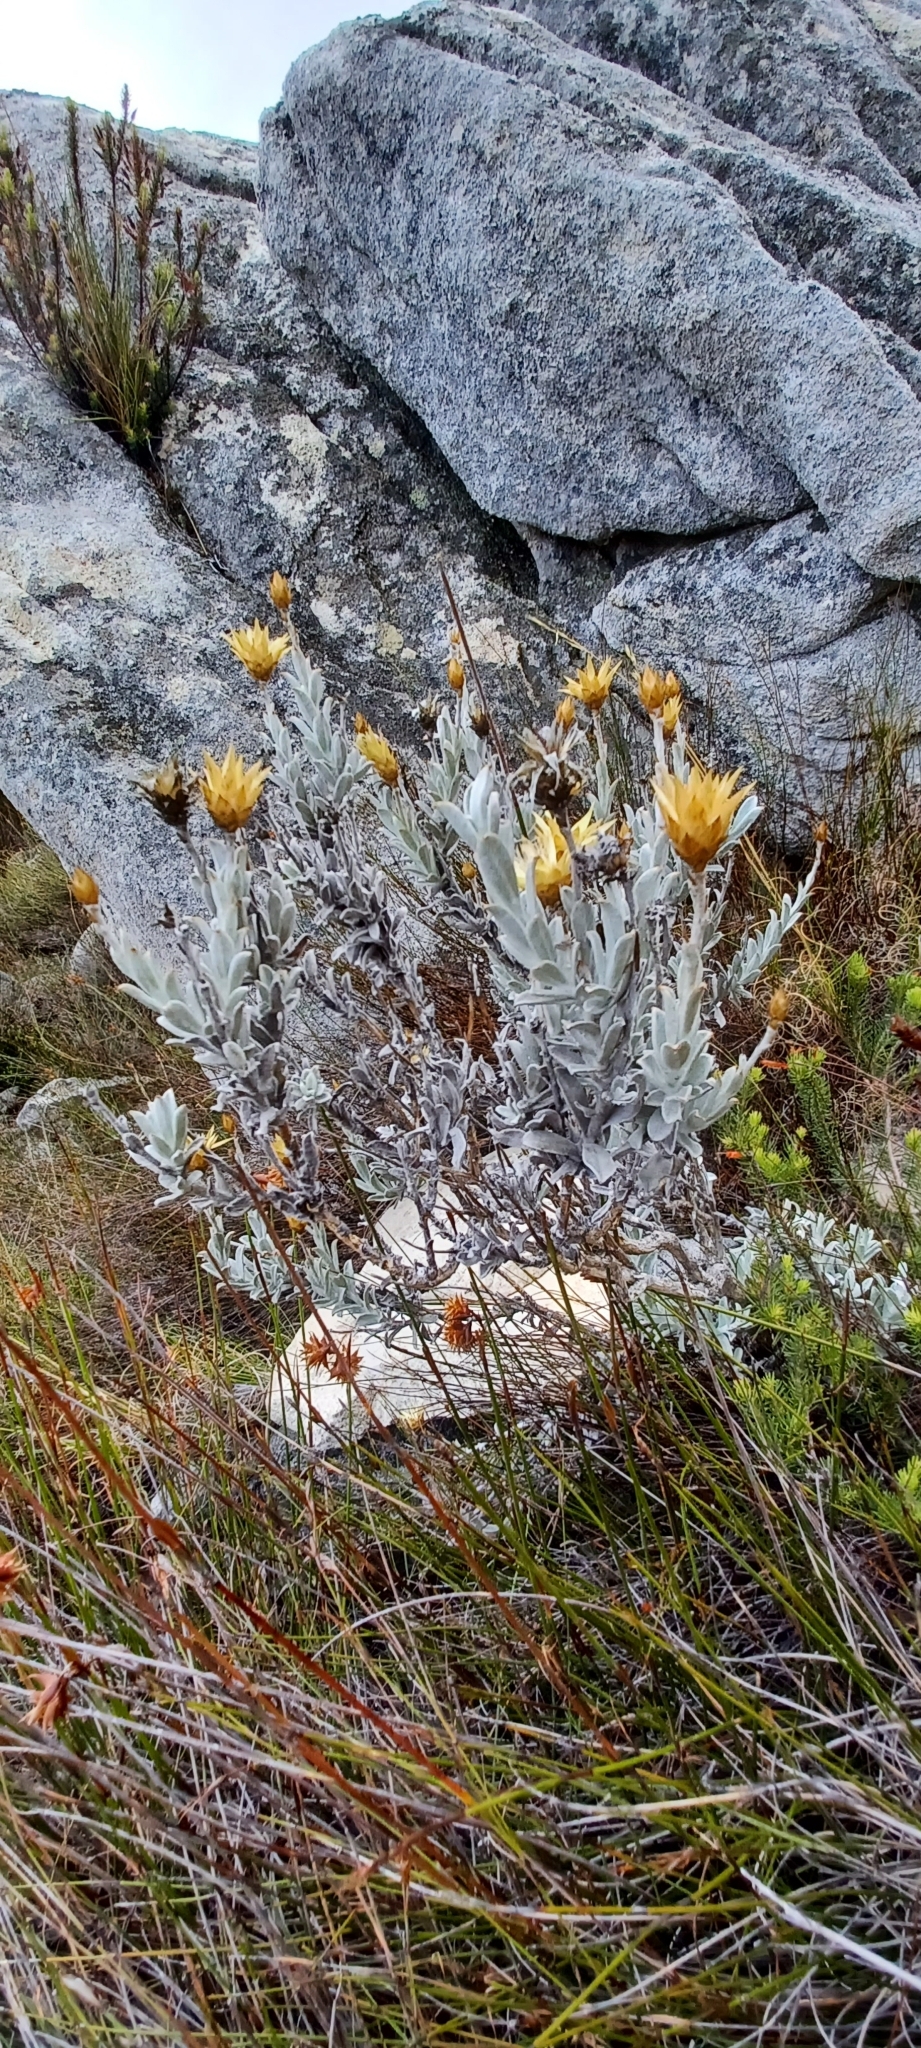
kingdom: Plantae
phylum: Tracheophyta
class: Magnoliopsida
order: Asterales
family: Asteraceae
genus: Syncarpha
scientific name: Syncarpha speciosissima
